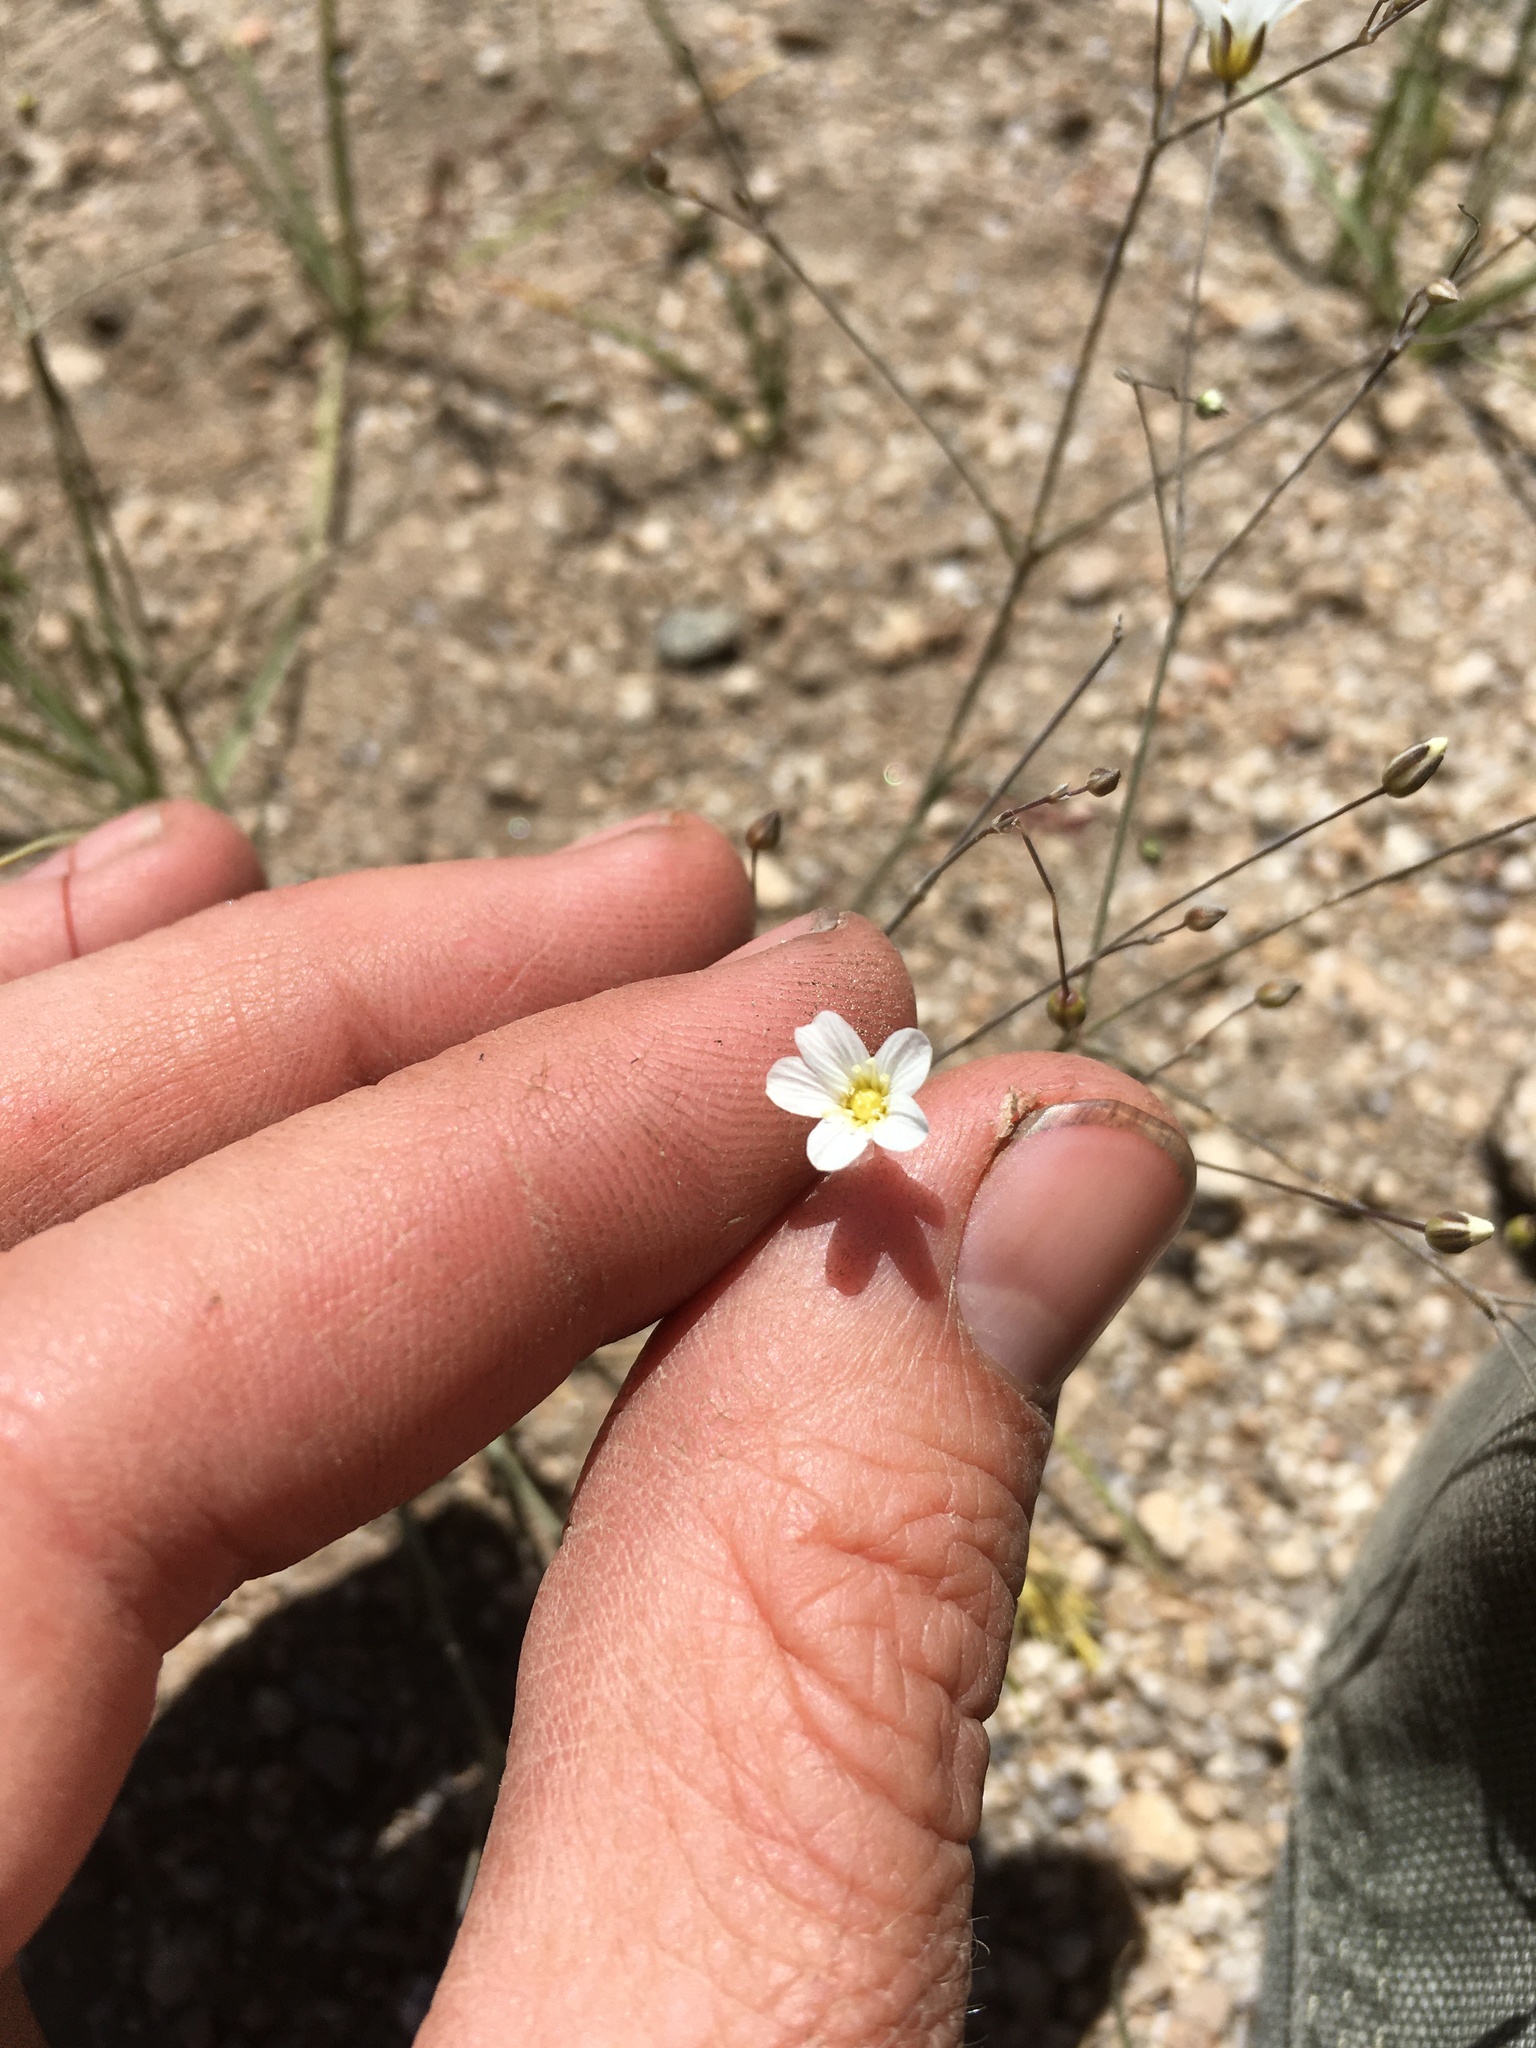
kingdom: Plantae
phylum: Tracheophyta
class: Magnoliopsida
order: Caryophyllales
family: Caryophyllaceae
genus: Eremogone
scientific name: Eremogone ferrisiae
